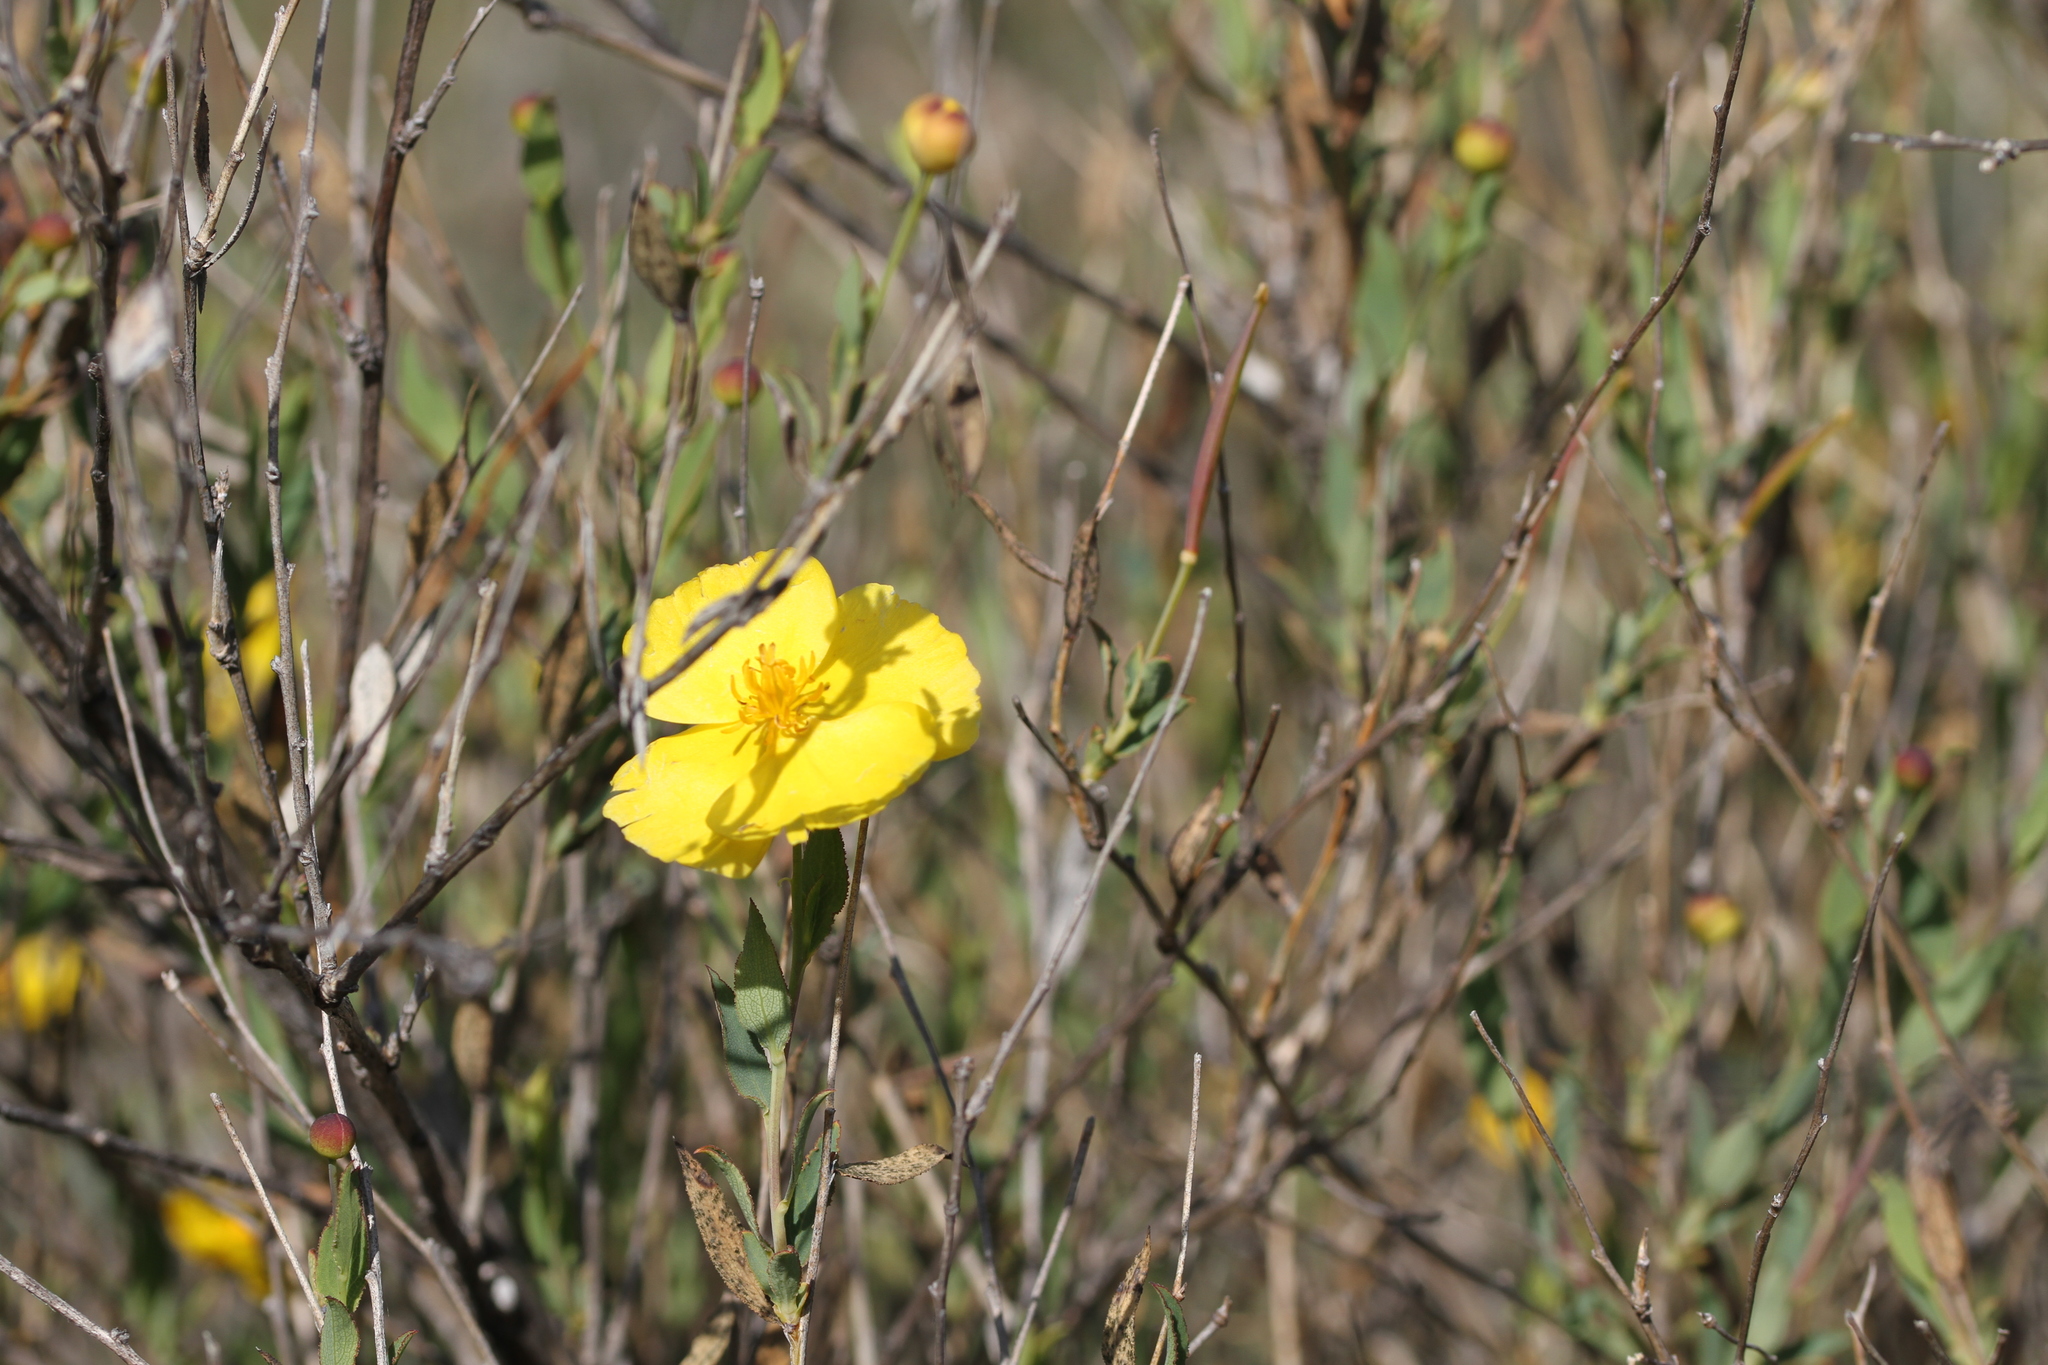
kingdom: Plantae
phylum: Tracheophyta
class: Magnoliopsida
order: Ranunculales
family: Papaveraceae
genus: Dendromecon
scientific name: Dendromecon rigida
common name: Tree poppy
